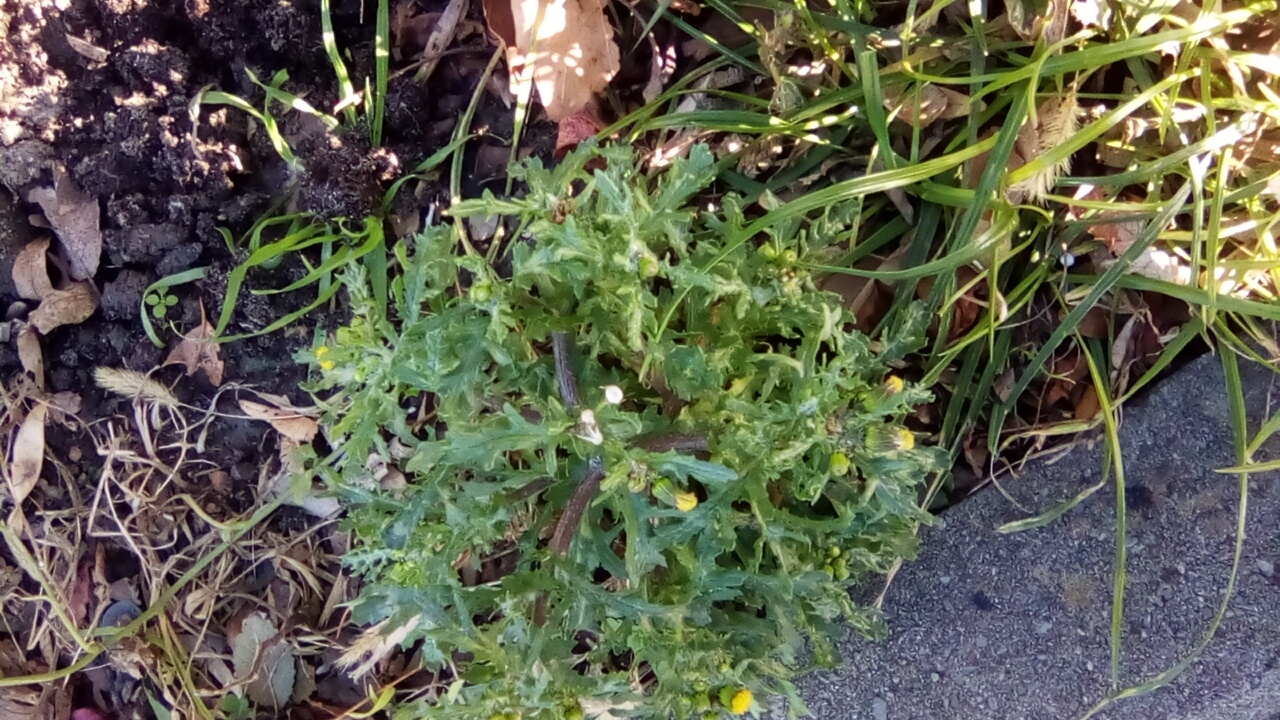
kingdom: Plantae
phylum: Tracheophyta
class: Magnoliopsida
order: Asterales
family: Asteraceae
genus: Senecio
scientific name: Senecio vulgaris
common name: Old-man-in-the-spring
